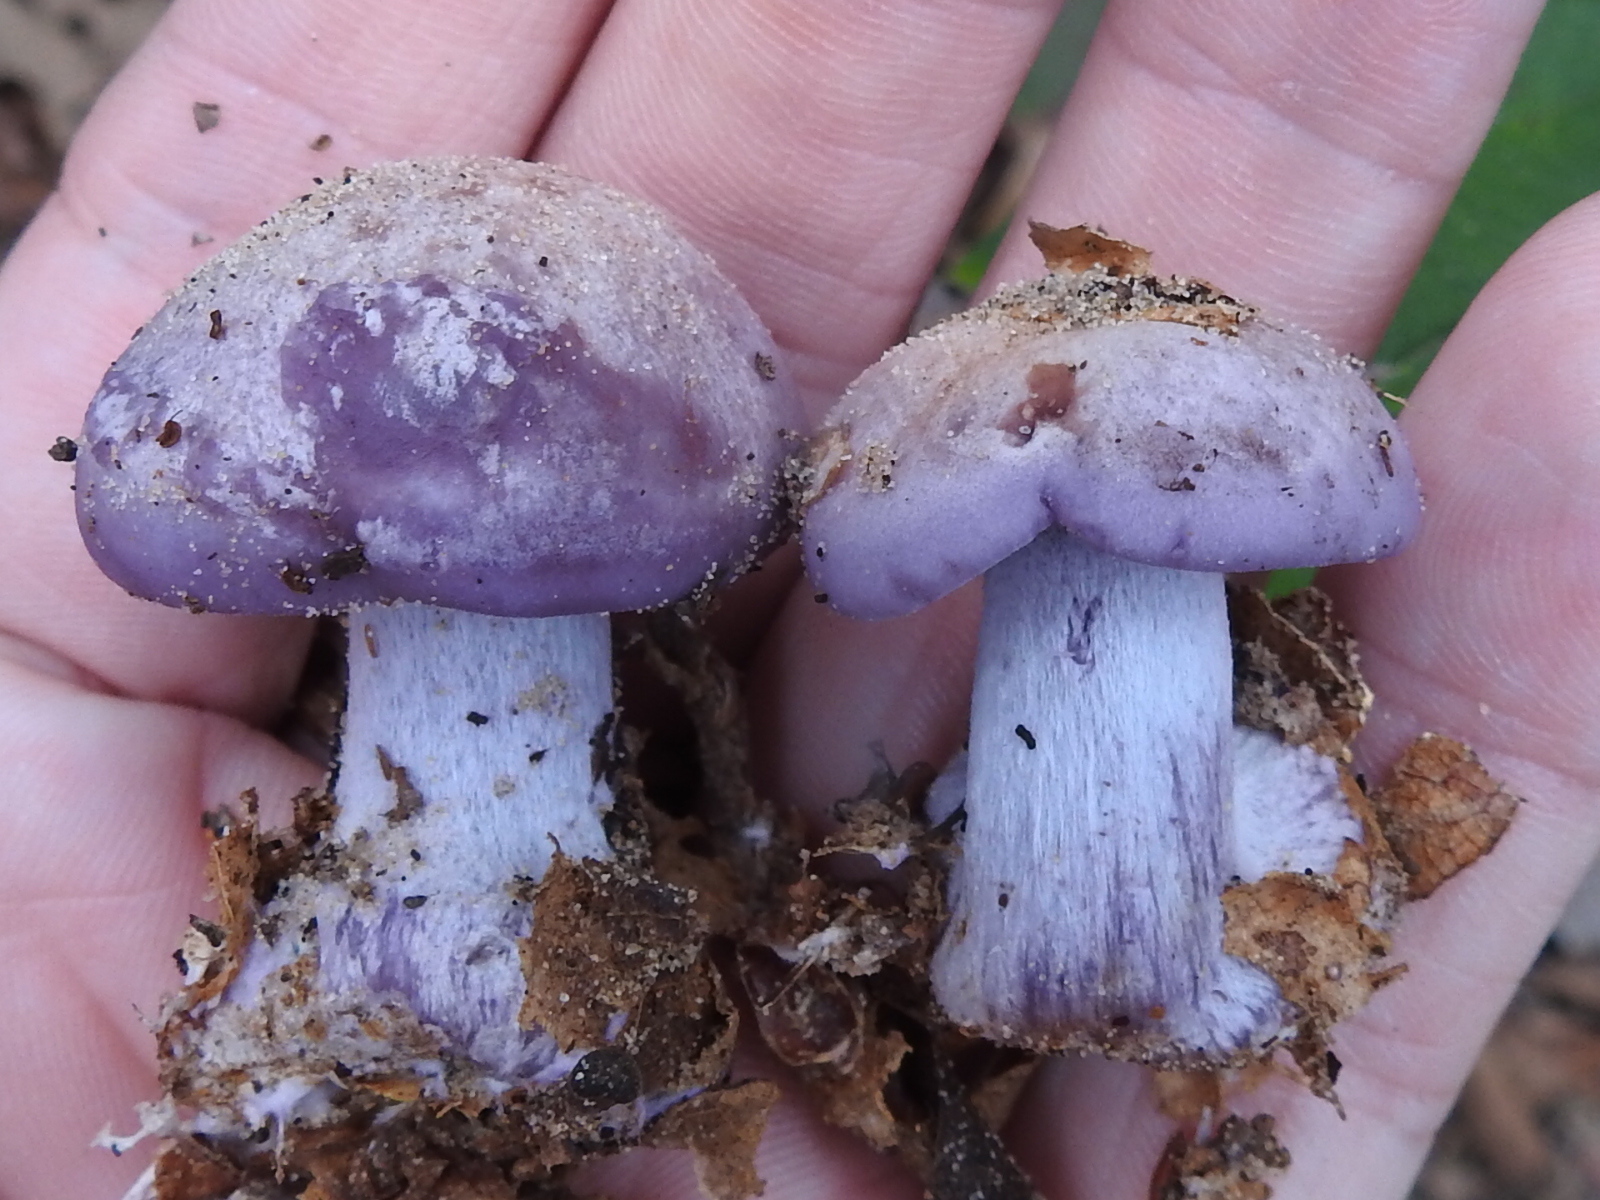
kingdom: Fungi
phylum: Basidiomycota
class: Agaricomycetes
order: Agaricales
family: Tricholomataceae
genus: Collybia
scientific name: Collybia
